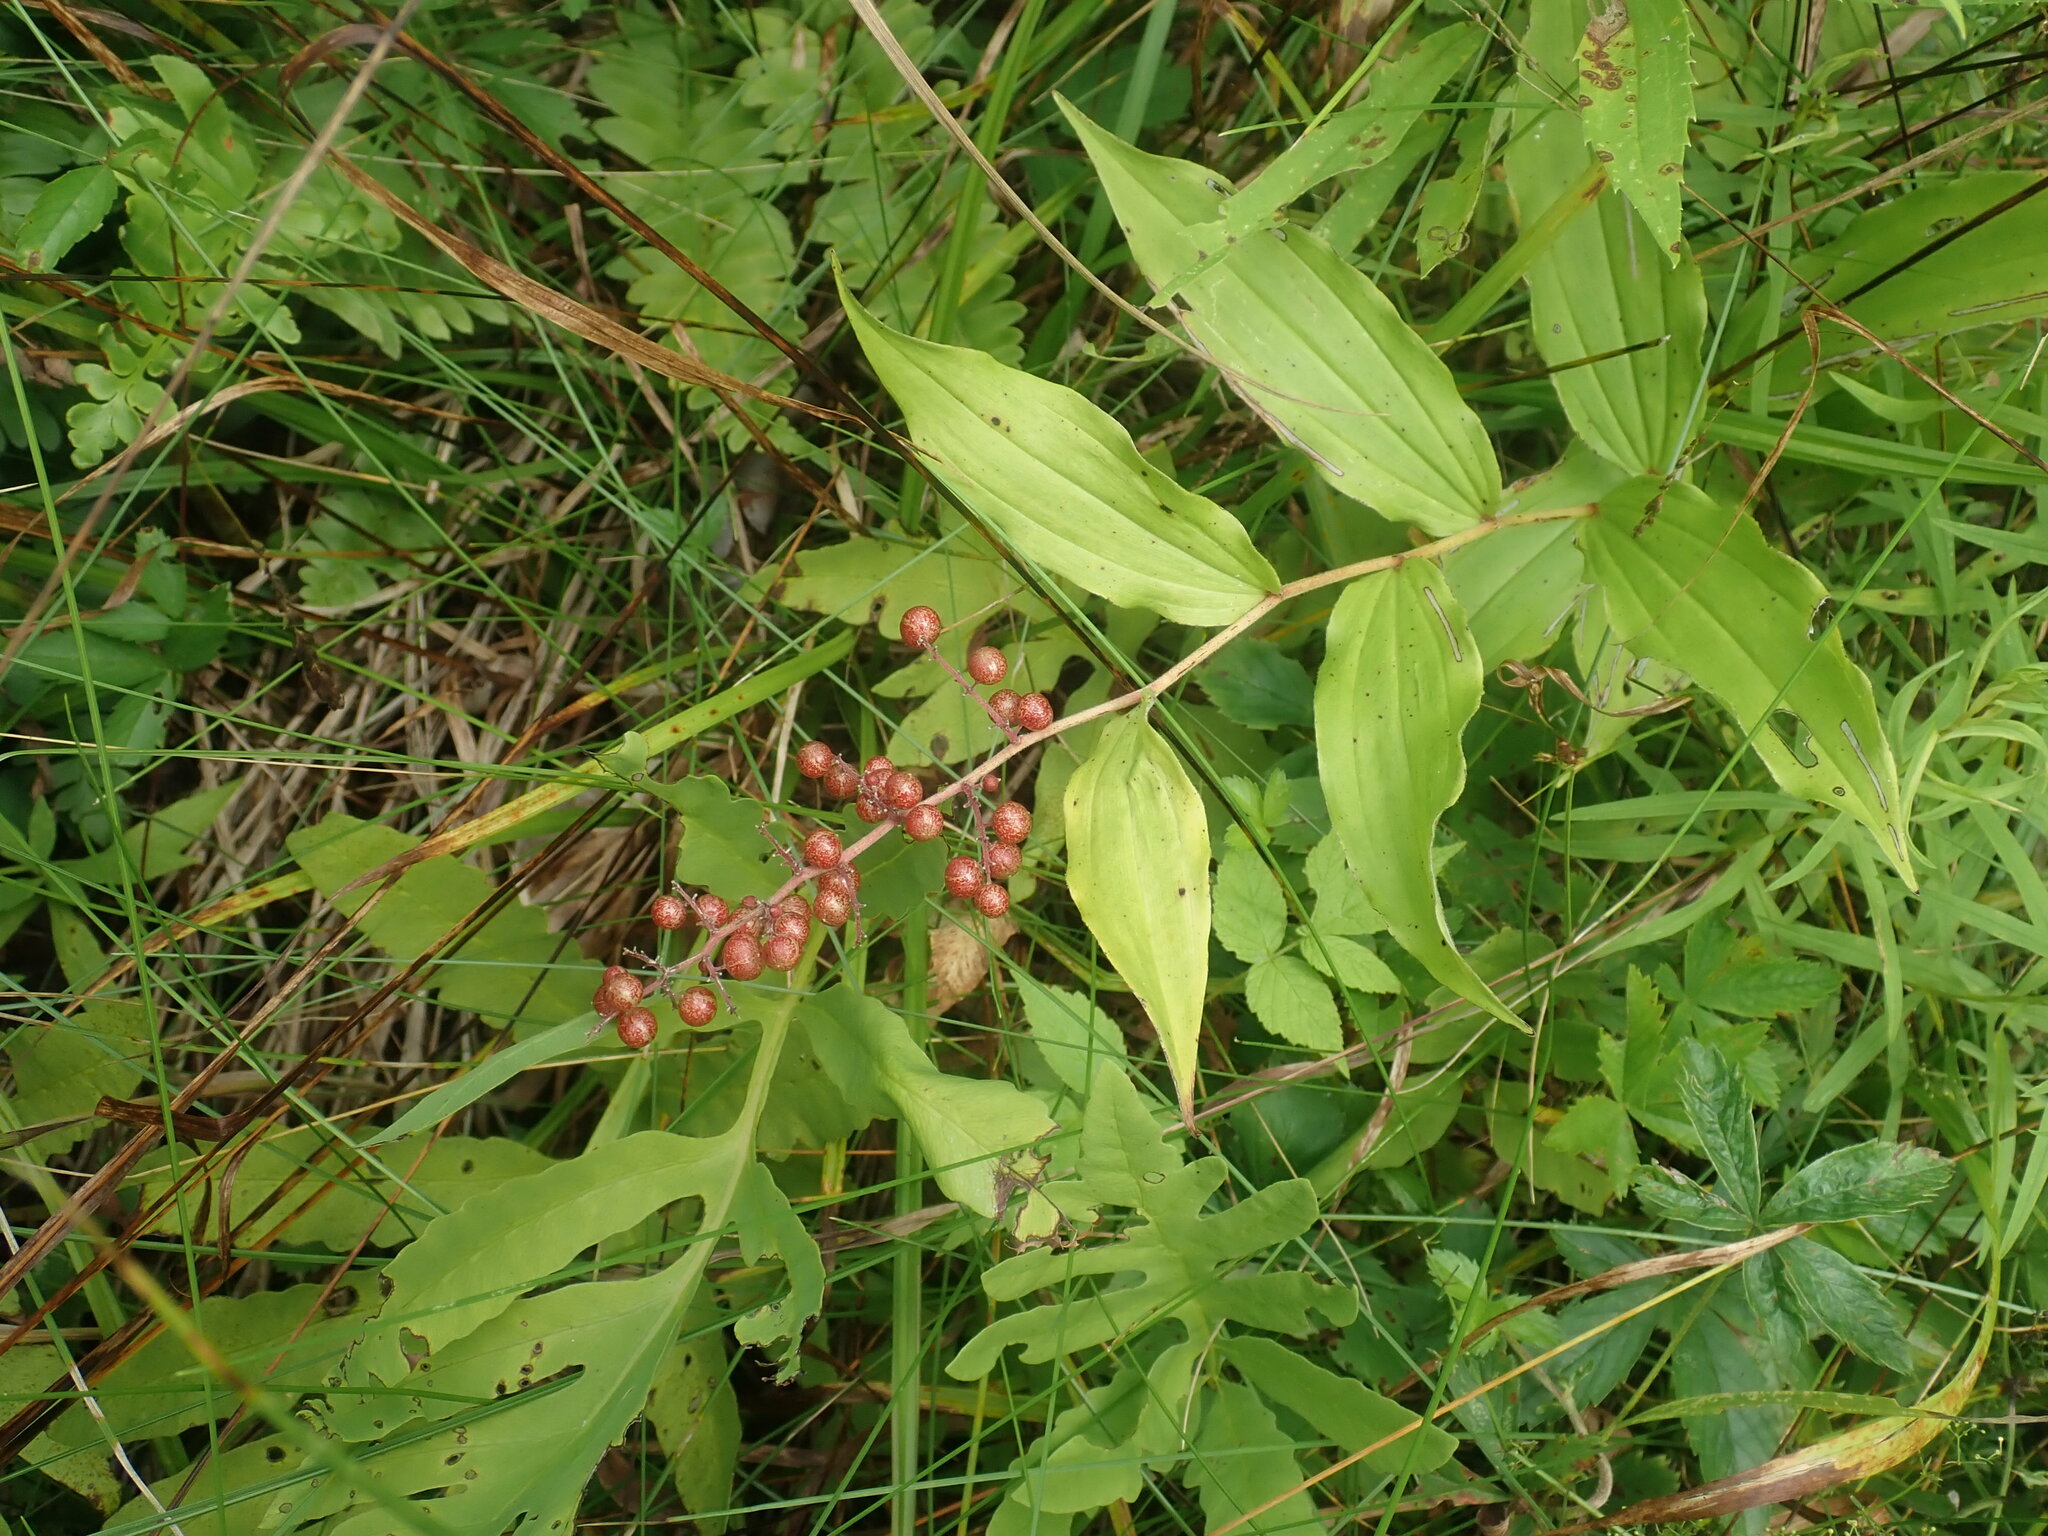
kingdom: Plantae
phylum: Tracheophyta
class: Liliopsida
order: Asparagales
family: Asparagaceae
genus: Maianthemum
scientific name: Maianthemum racemosum
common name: False spikenard
